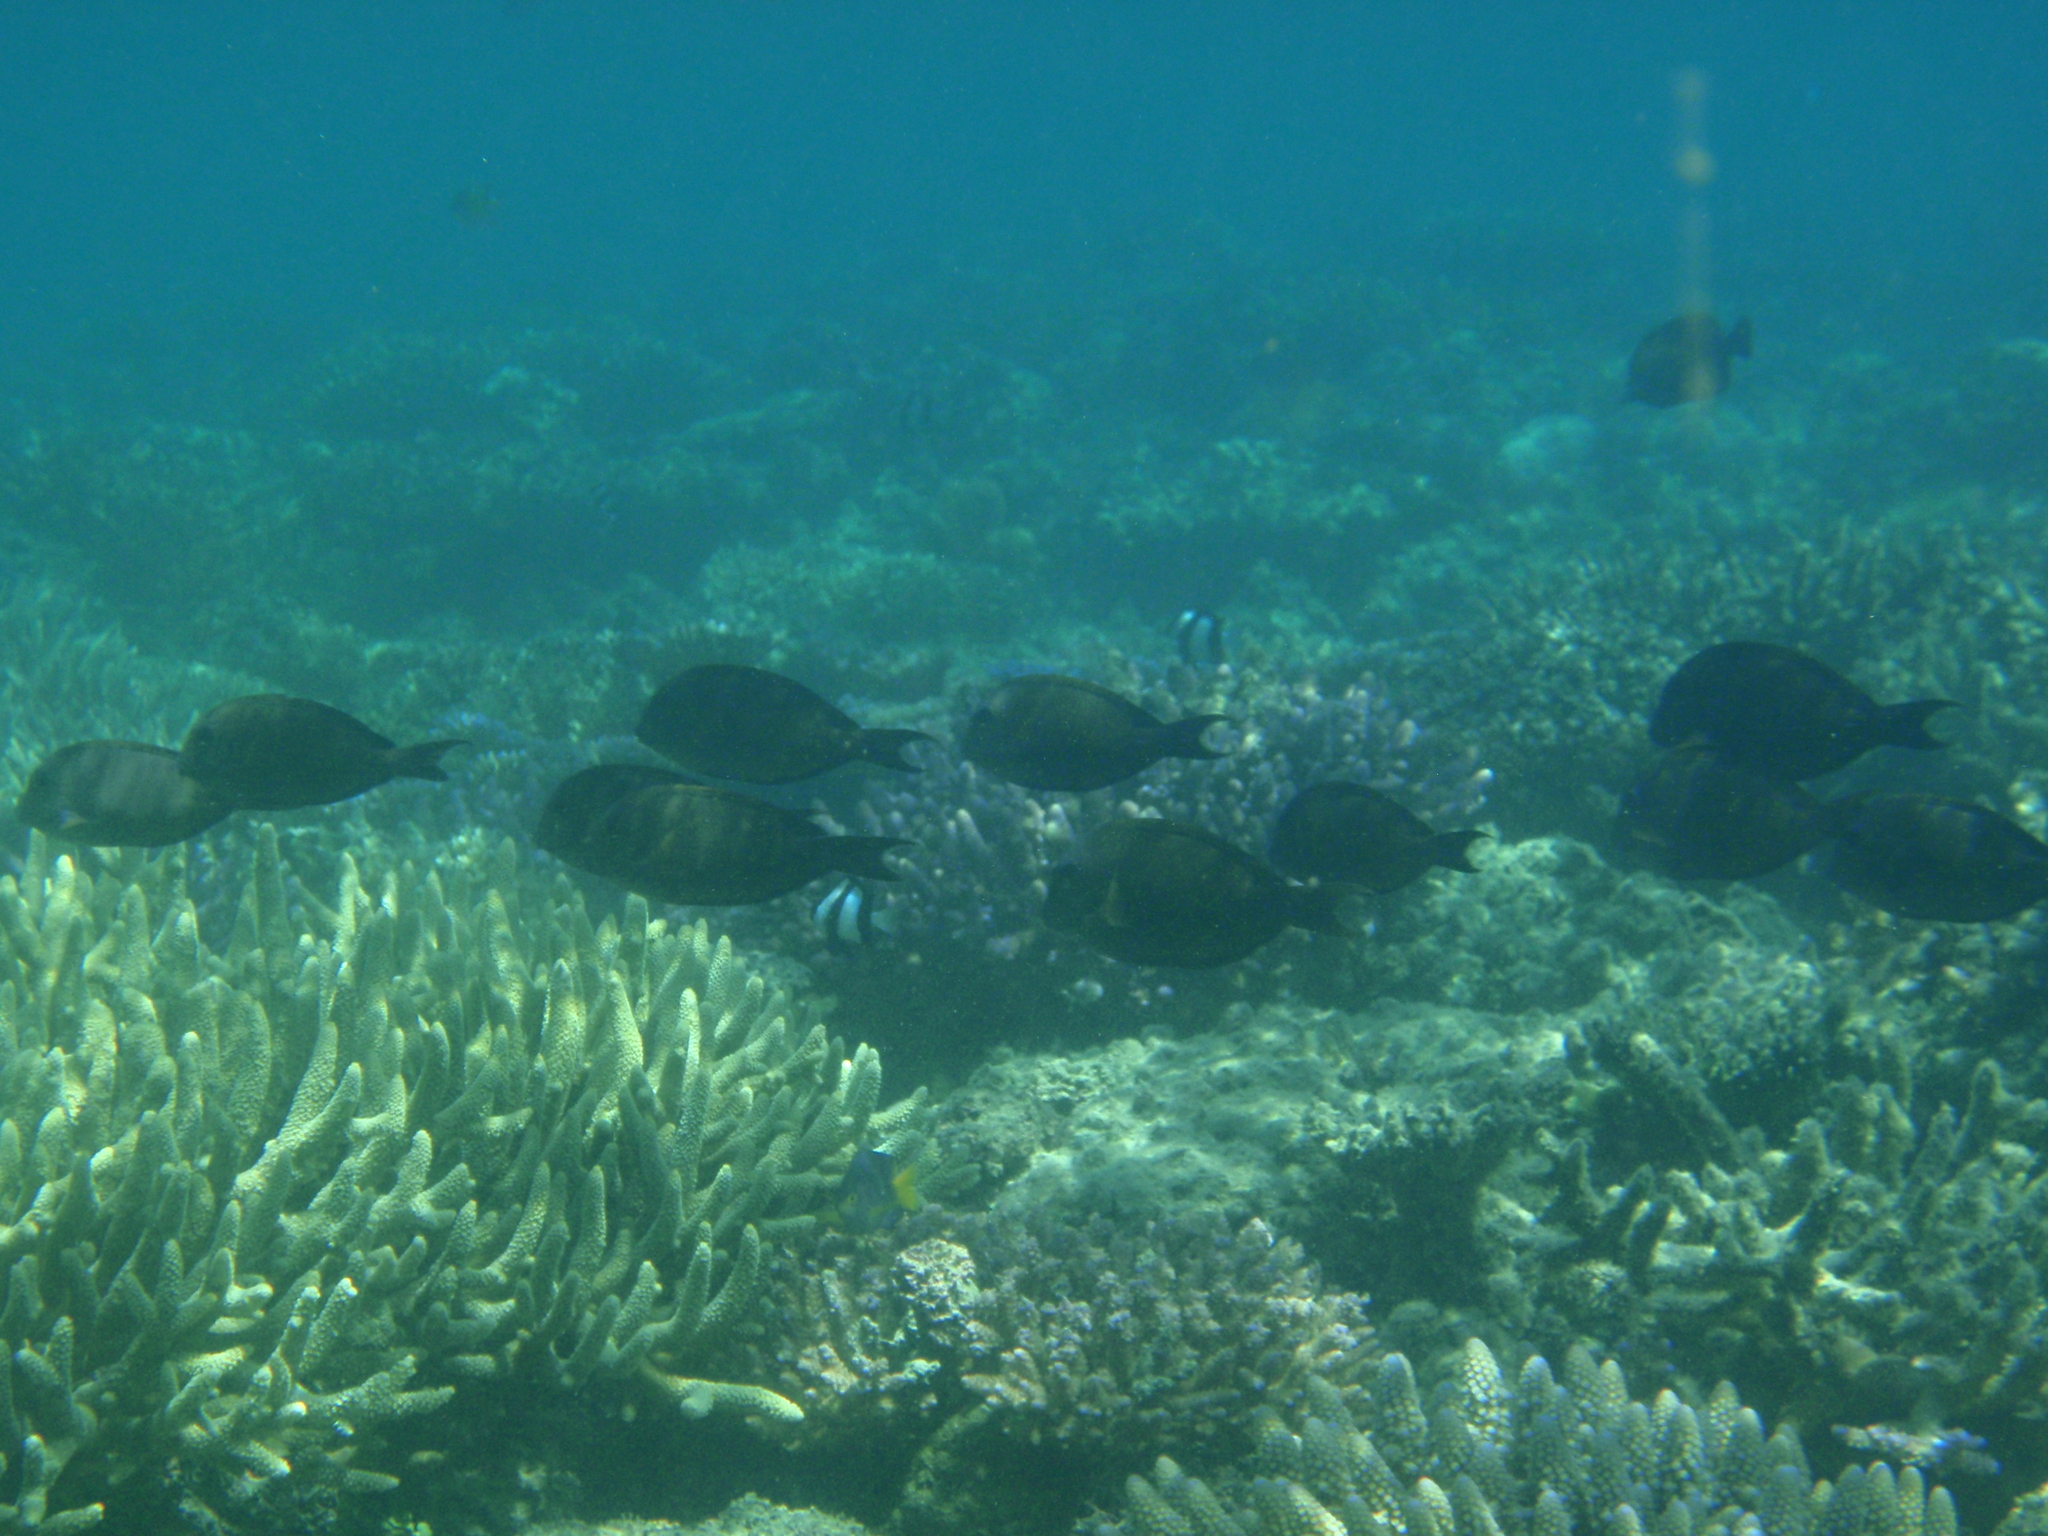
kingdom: Animalia
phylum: Chordata
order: Perciformes
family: Acanthuridae
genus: Ctenochaetus
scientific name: Ctenochaetus striatus
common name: Bristle-toothed surgeonfish
